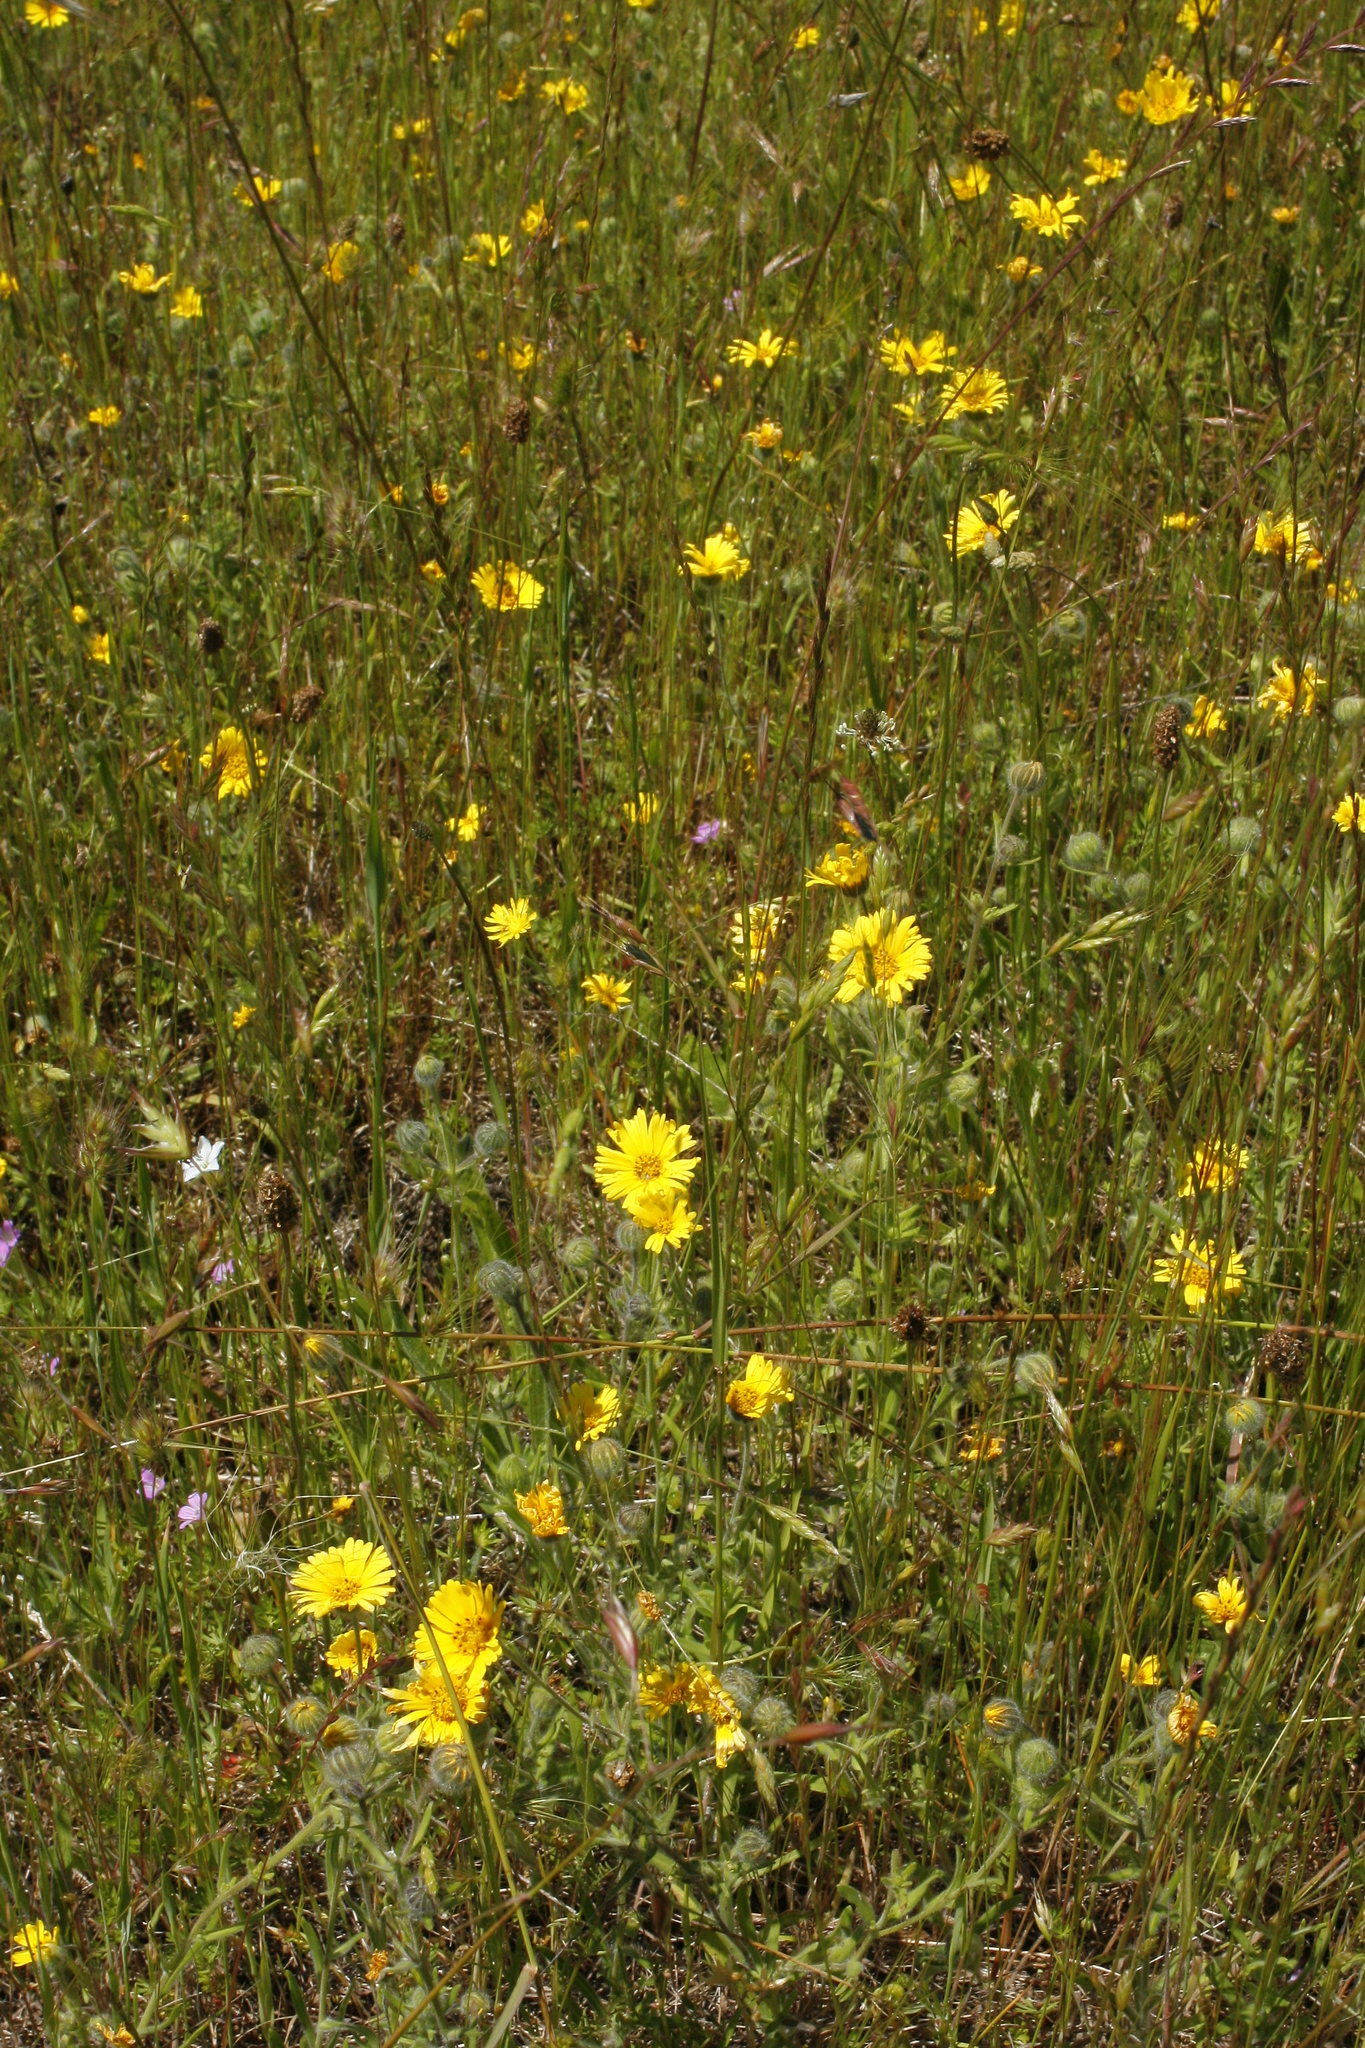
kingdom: Plantae
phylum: Tracheophyta
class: Magnoliopsida
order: Asterales
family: Asteraceae
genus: Madia
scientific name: Madia elegans
